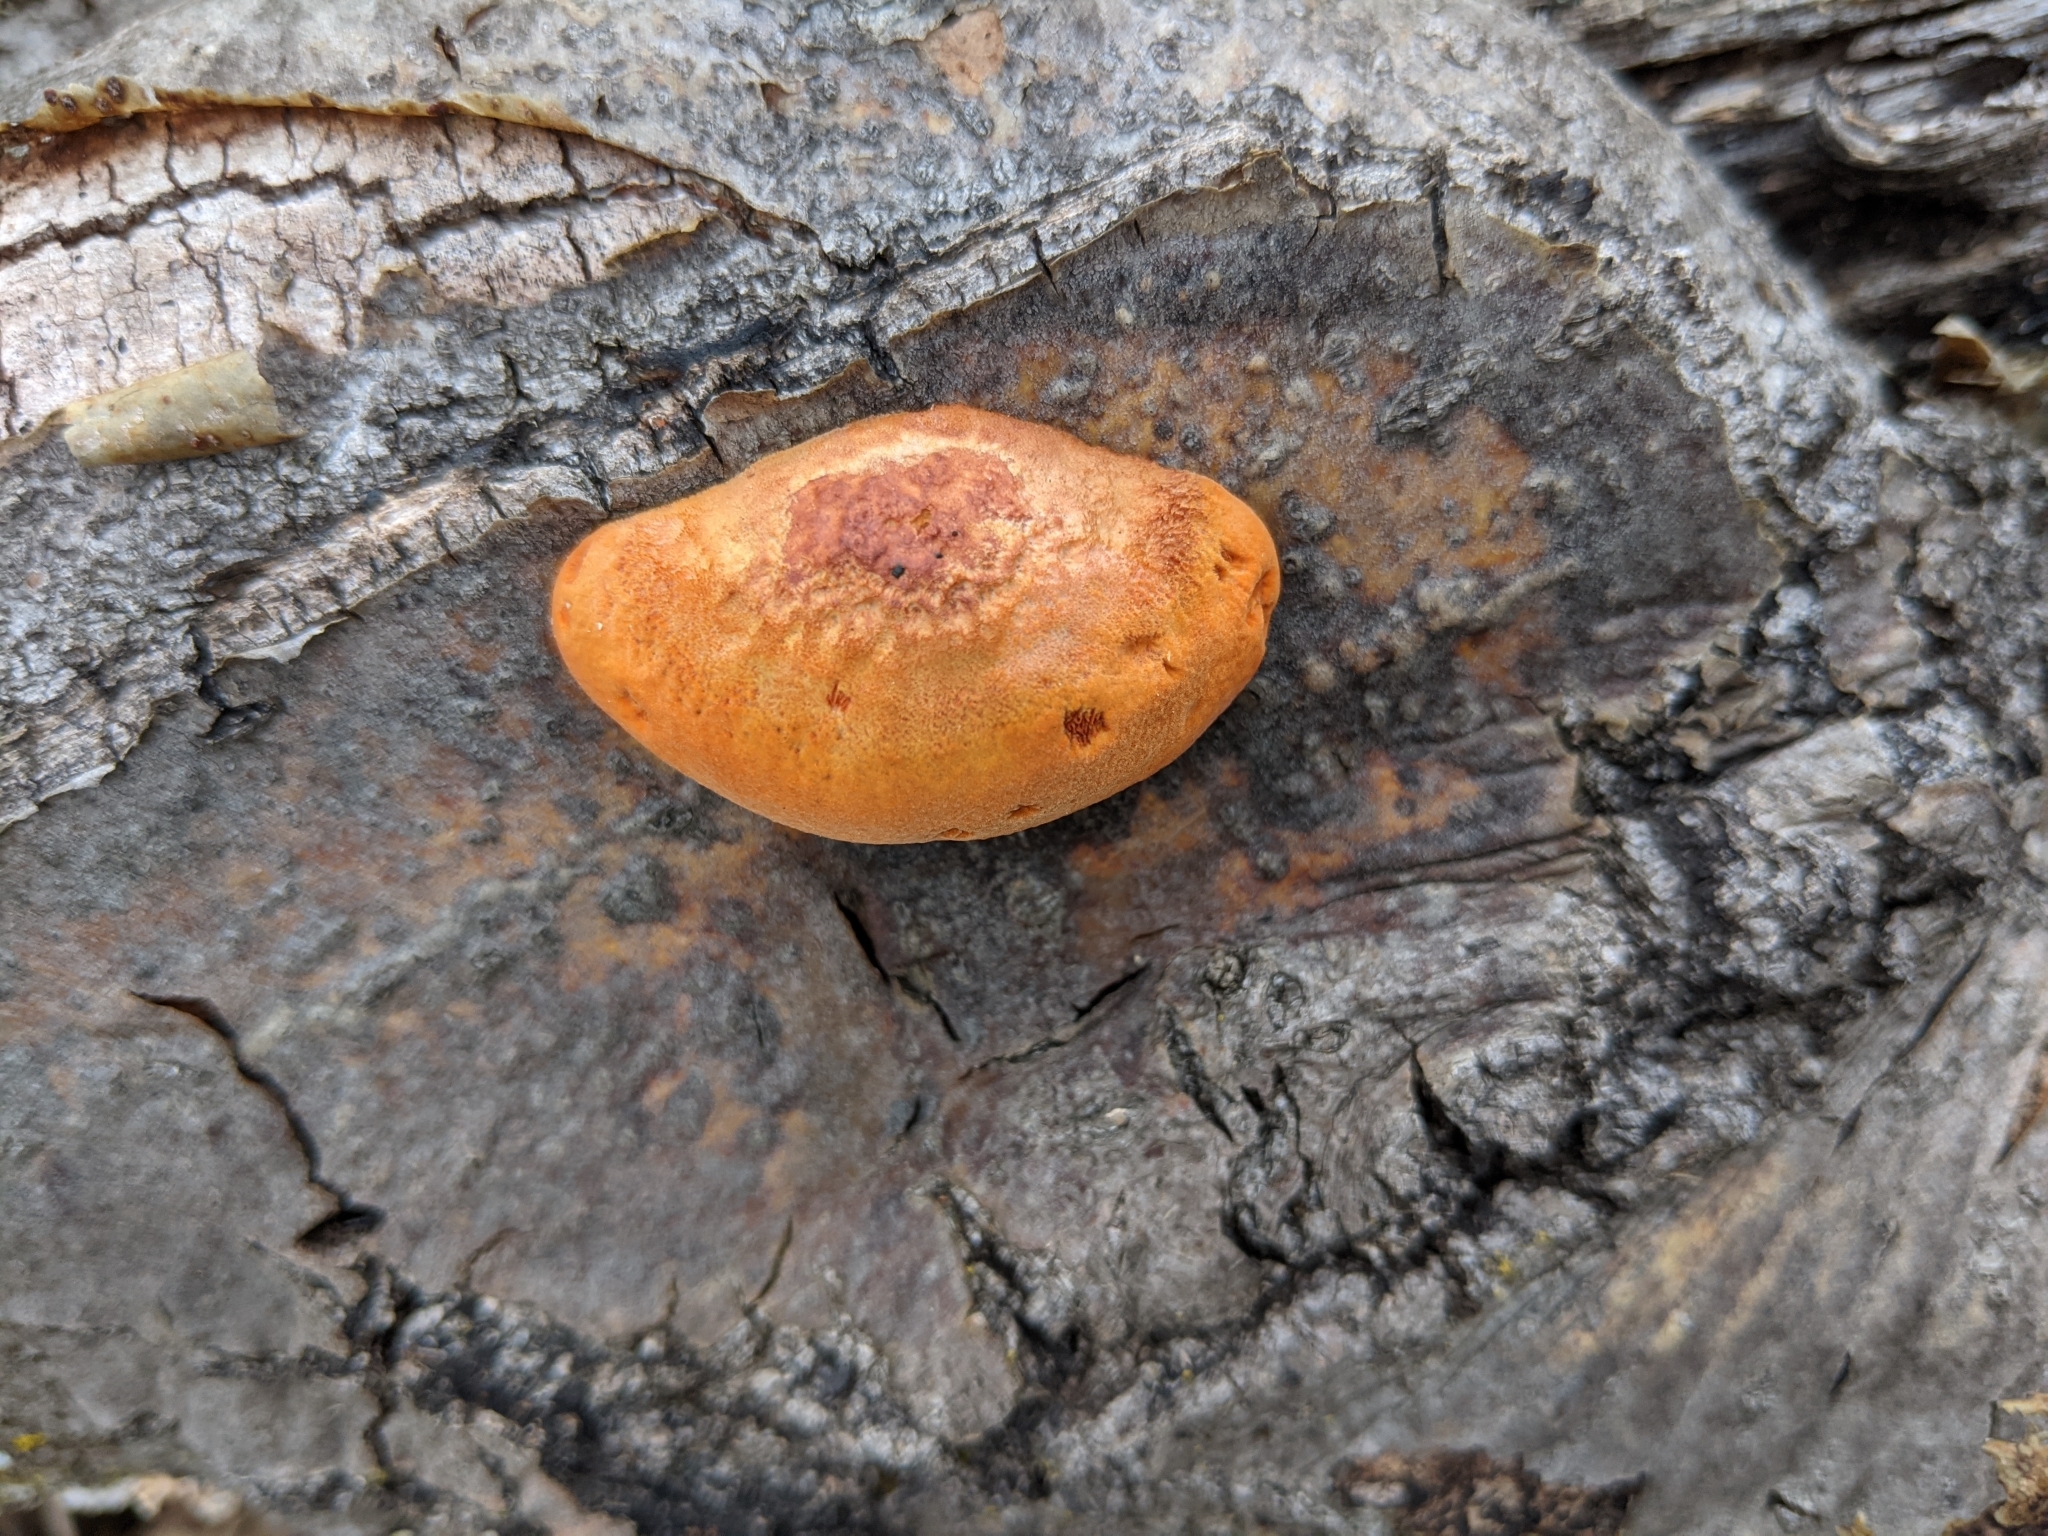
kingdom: Fungi
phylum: Basidiomycota
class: Agaricomycetes
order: Polyporales
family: Polyporaceae
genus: Trametes
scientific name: Trametes cinnabarina
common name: Northern cinnabar polypore
